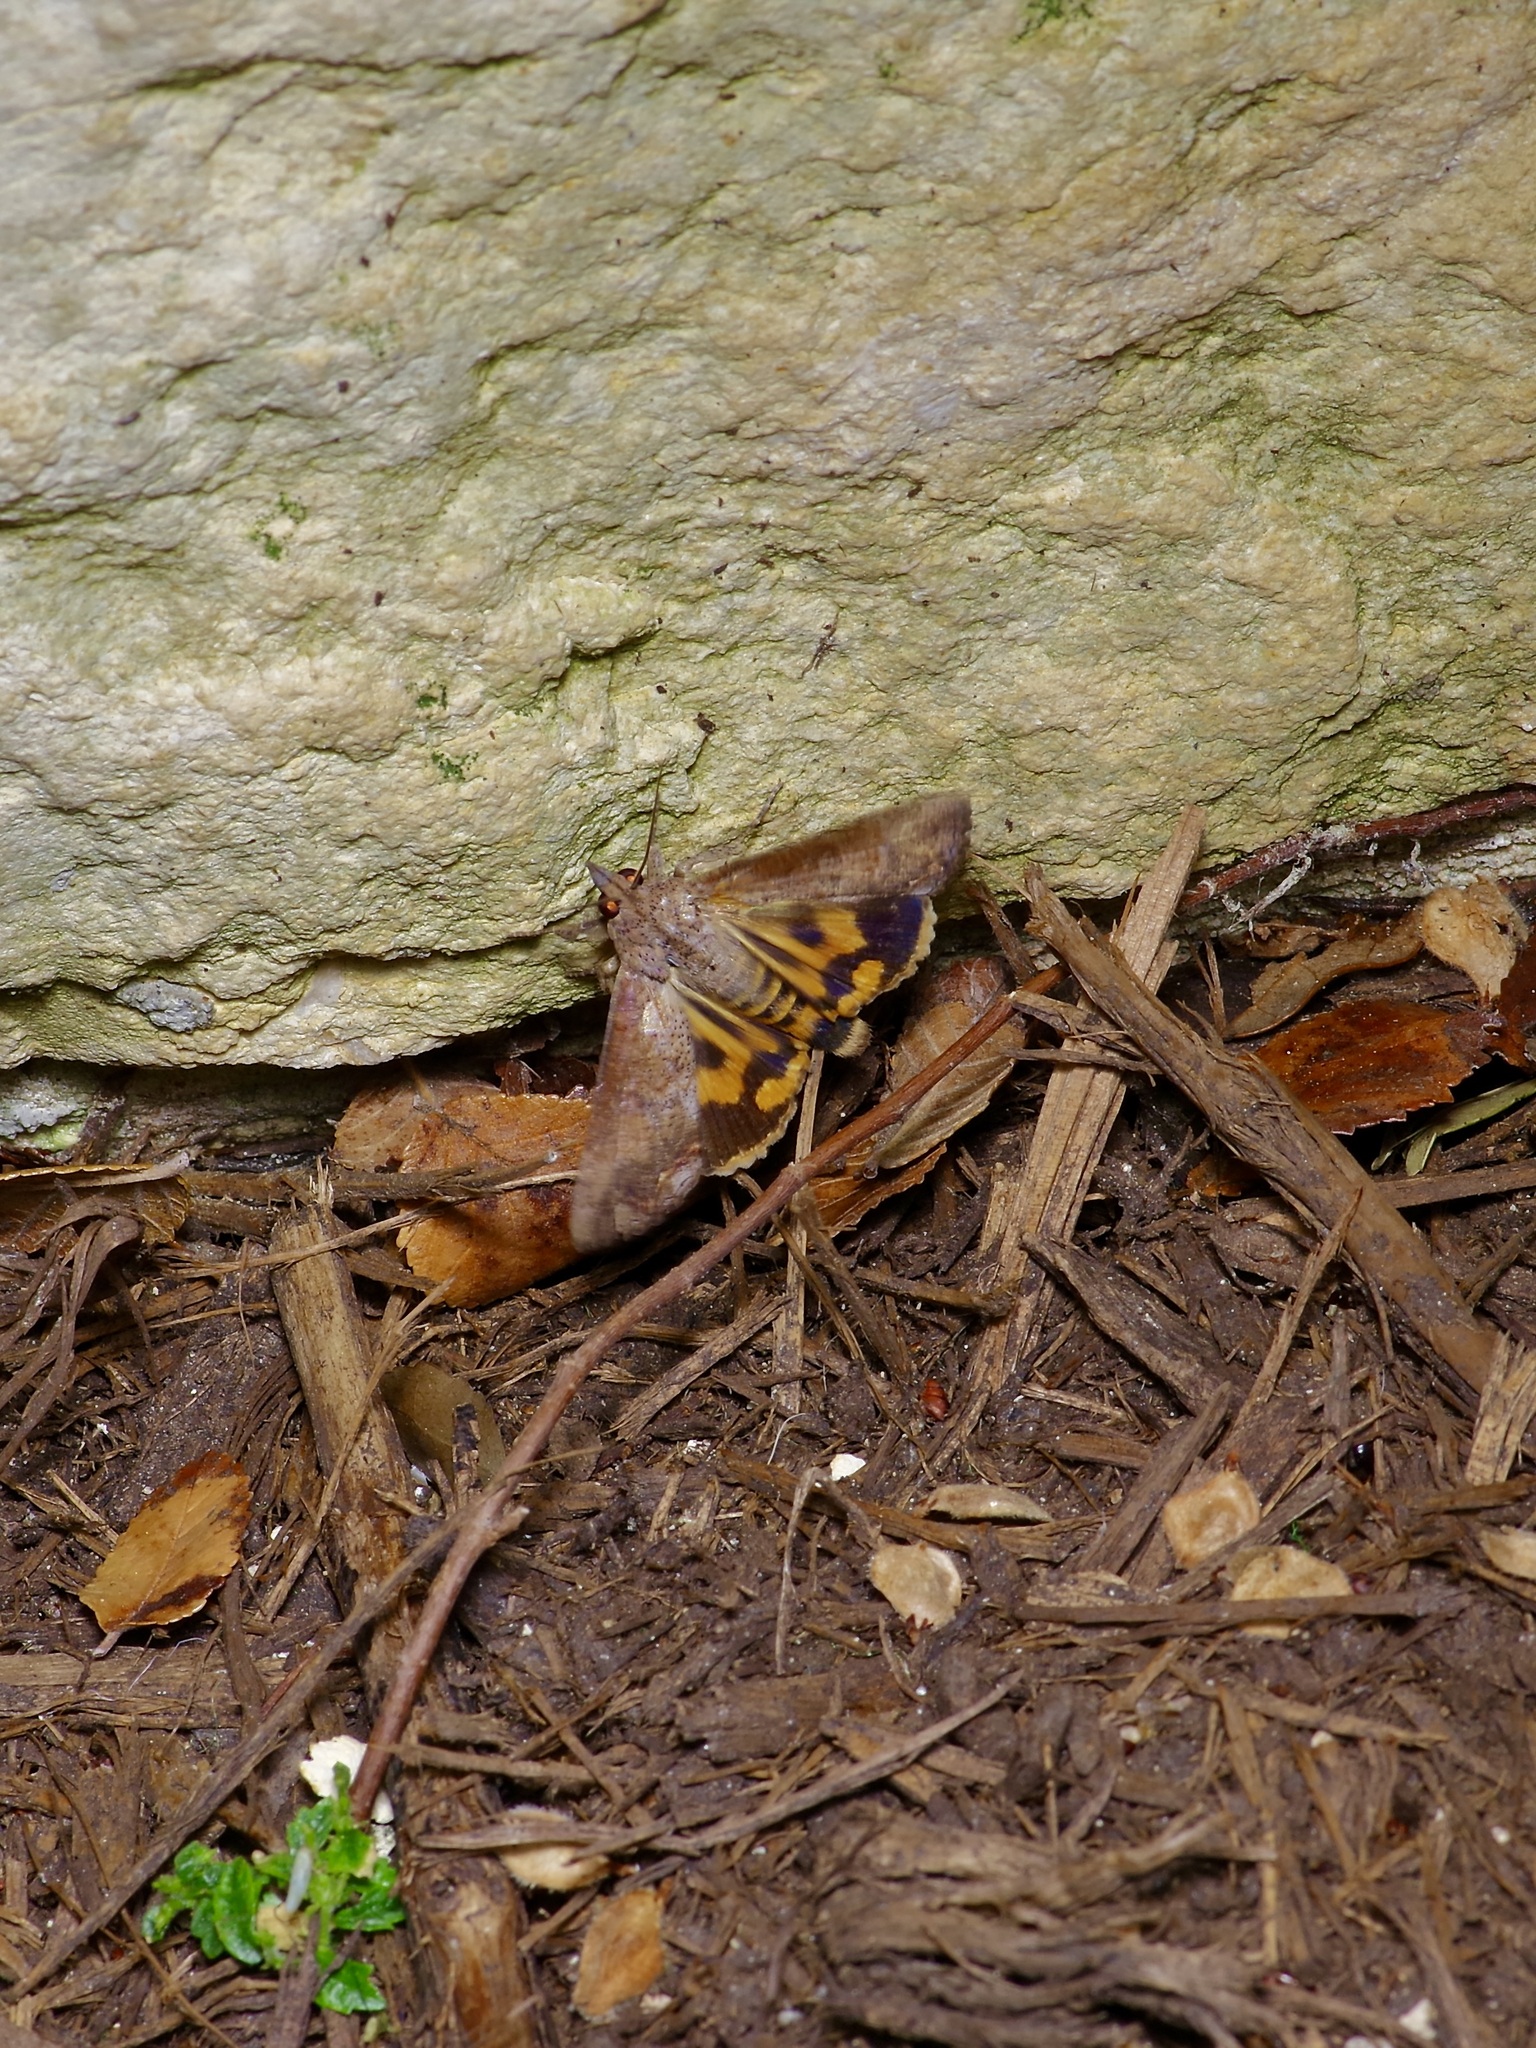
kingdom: Animalia
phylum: Arthropoda
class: Insecta
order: Lepidoptera
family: Erebidae
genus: Hypocala
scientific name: Hypocala andremona
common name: Hypocala moth
